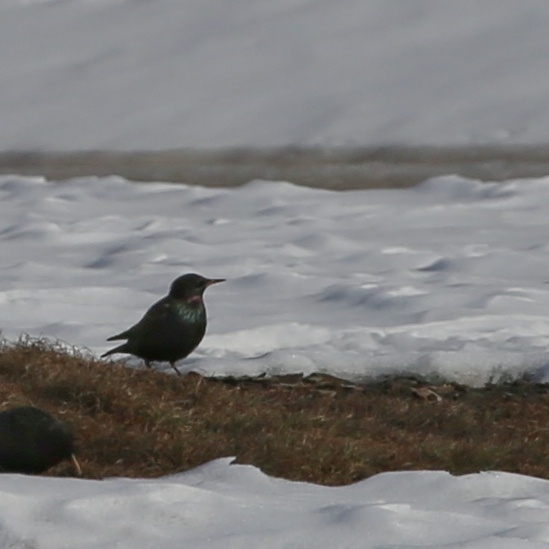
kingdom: Animalia
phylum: Chordata
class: Aves
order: Passeriformes
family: Sturnidae
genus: Sturnus
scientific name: Sturnus vulgaris
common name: Common starling
